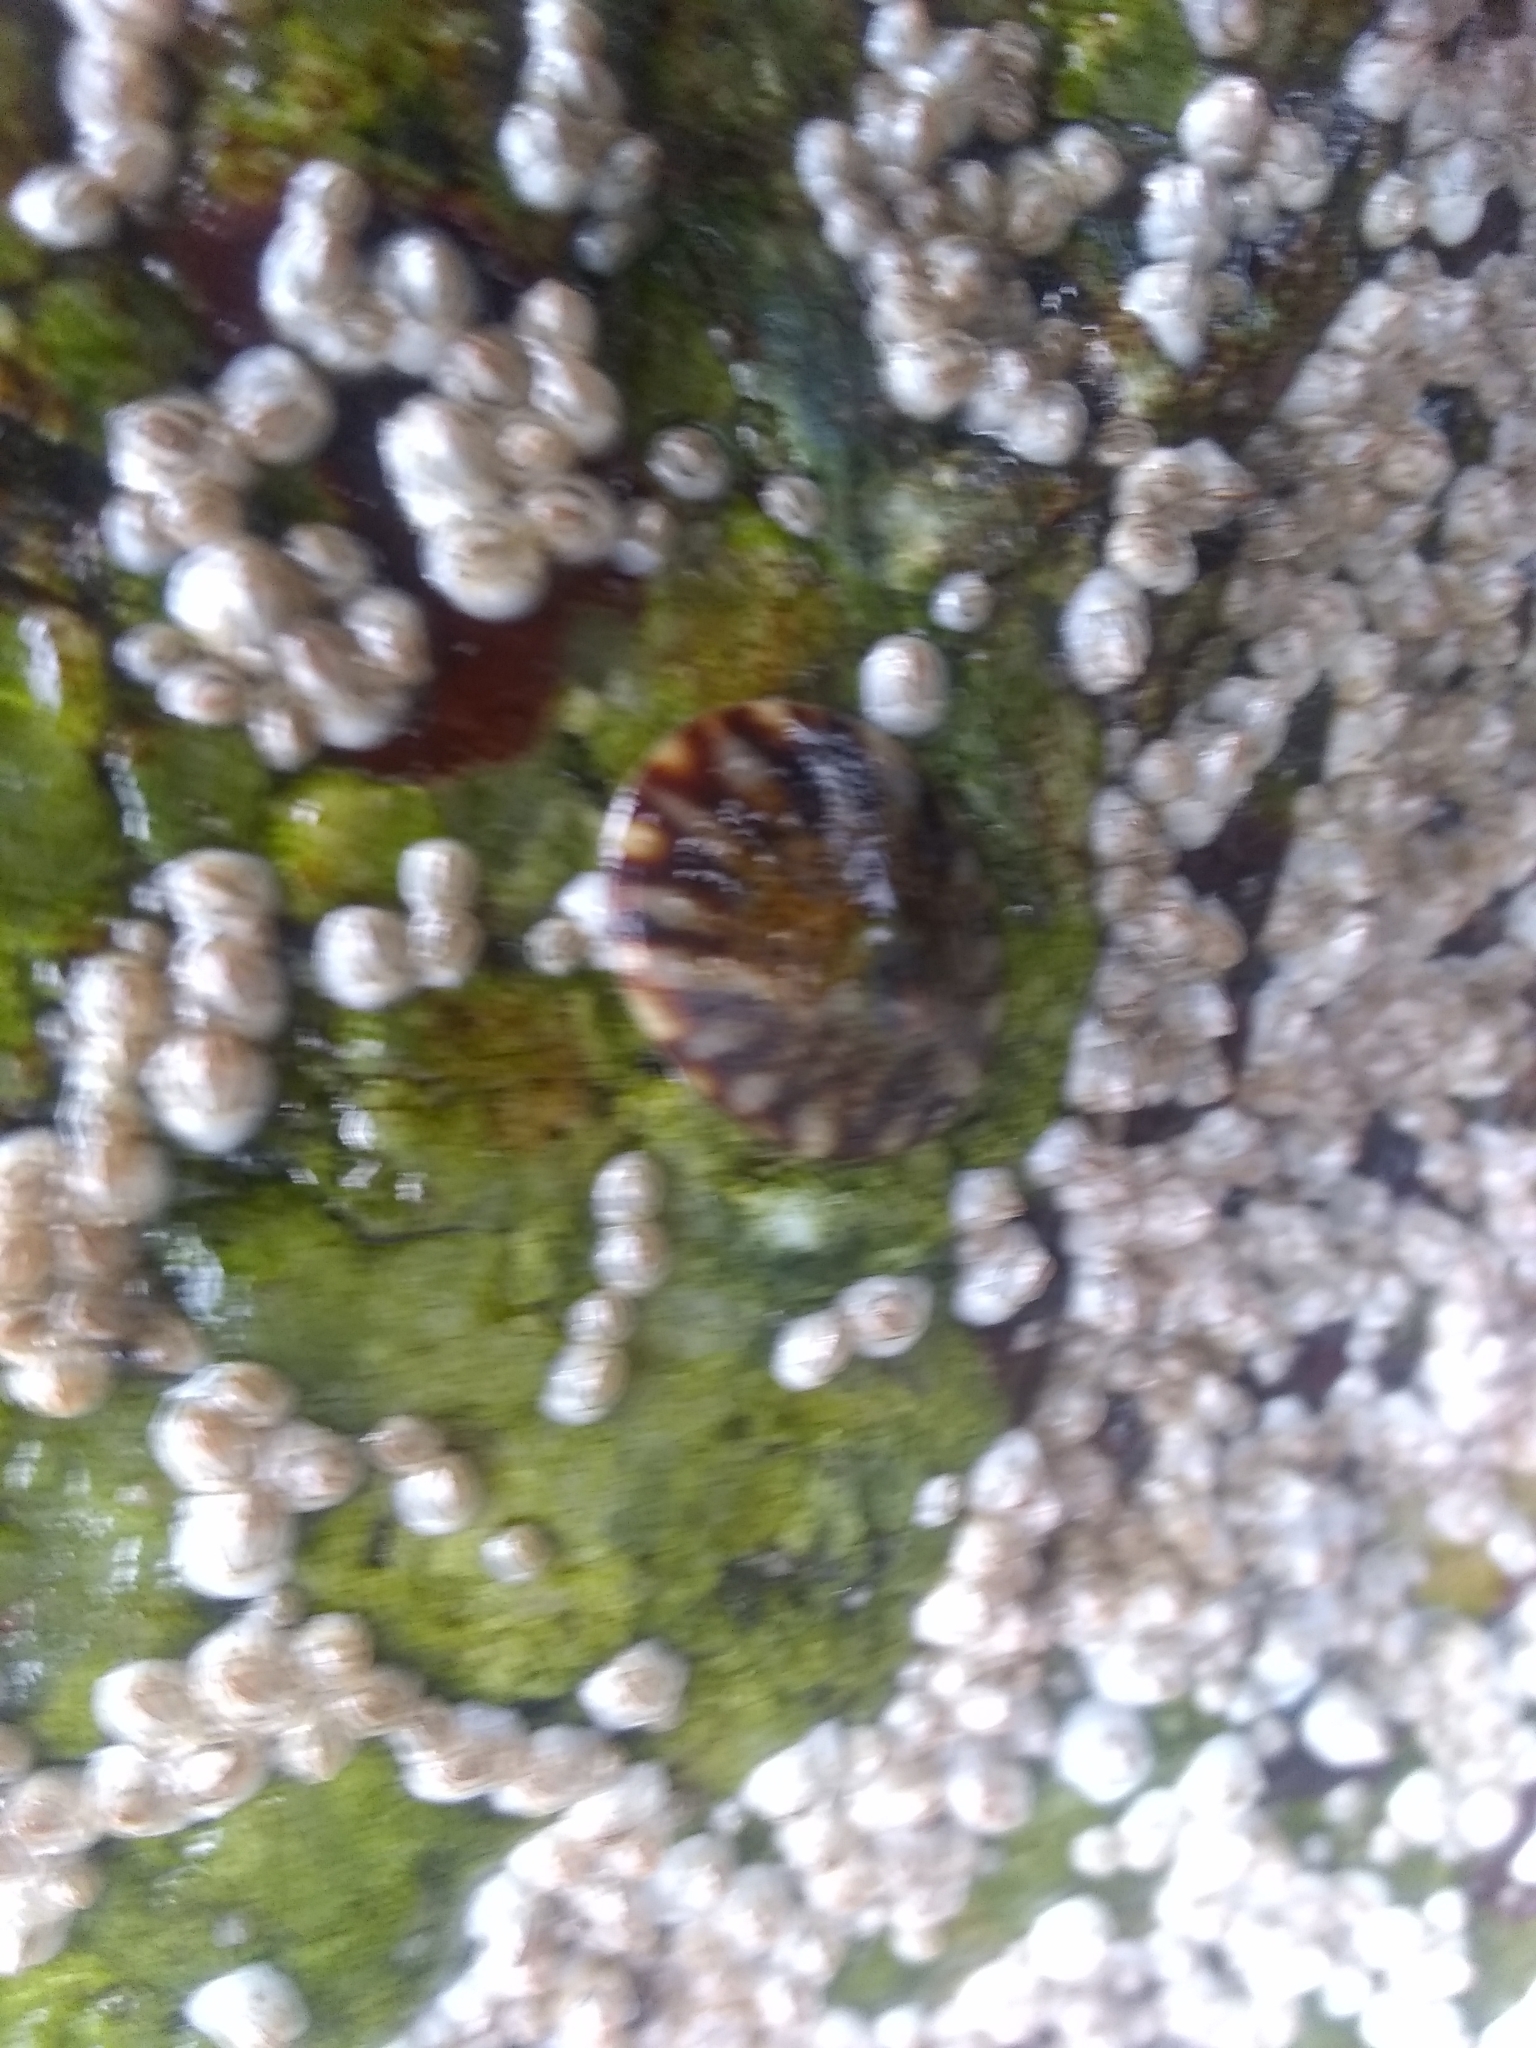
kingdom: Animalia
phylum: Mollusca
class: Gastropoda
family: Lottiidae
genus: Testudinalia
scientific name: Testudinalia testudinalis
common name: Common tortoiseshell limpet
